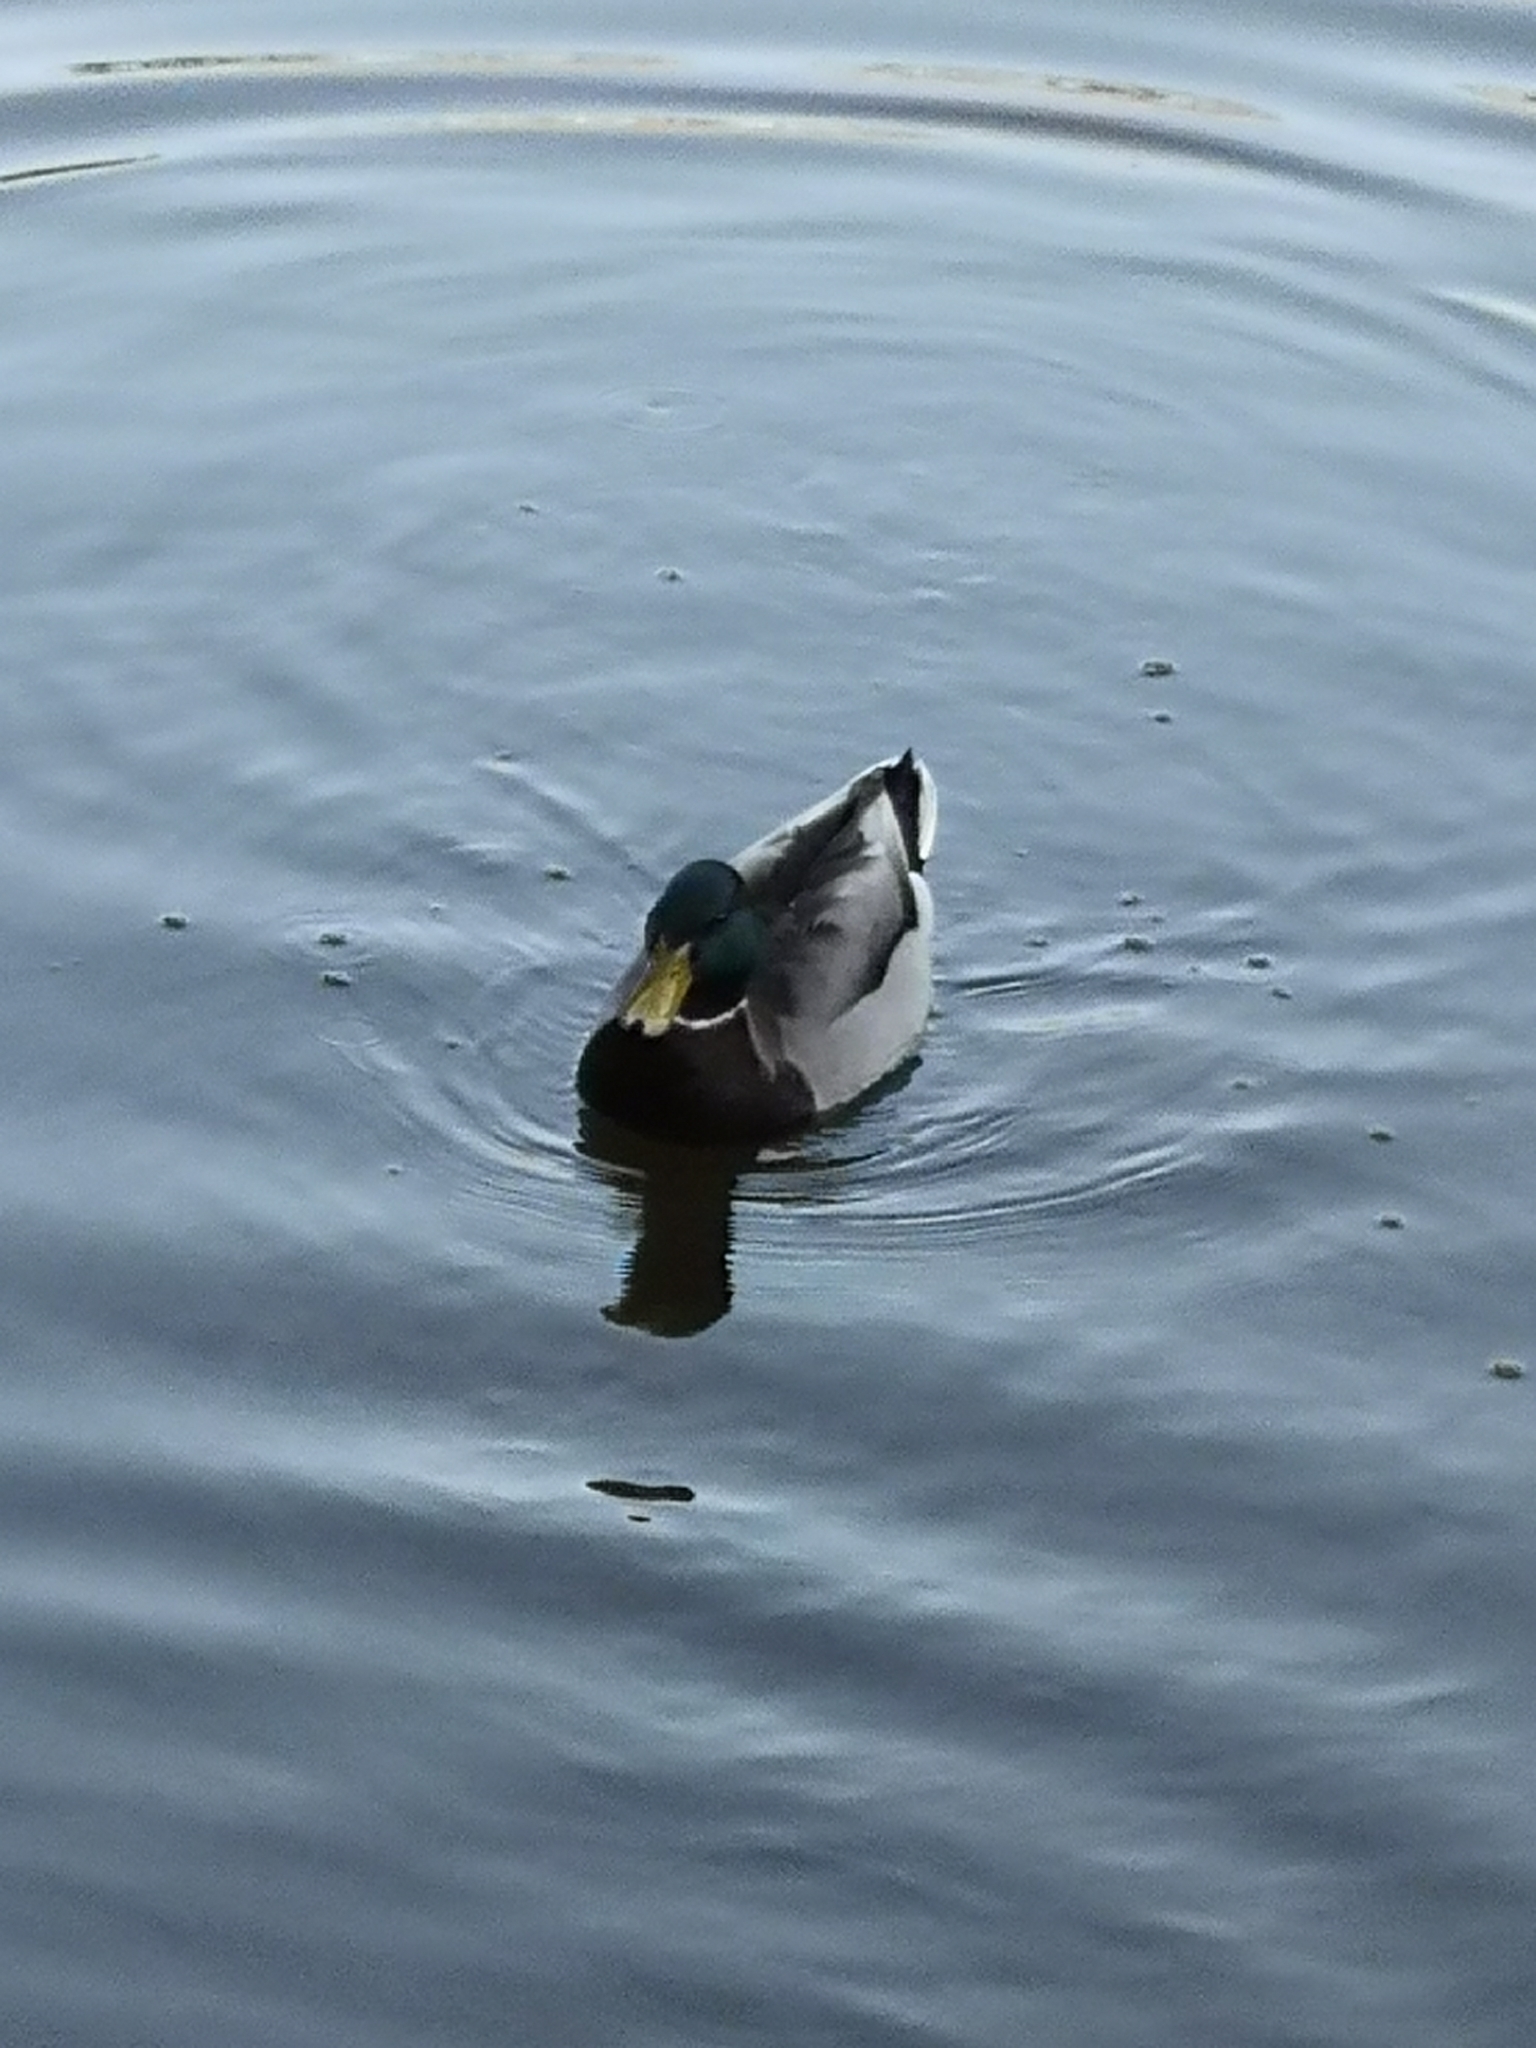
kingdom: Animalia
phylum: Chordata
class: Aves
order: Anseriformes
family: Anatidae
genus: Anas
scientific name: Anas platyrhynchos
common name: Mallard
